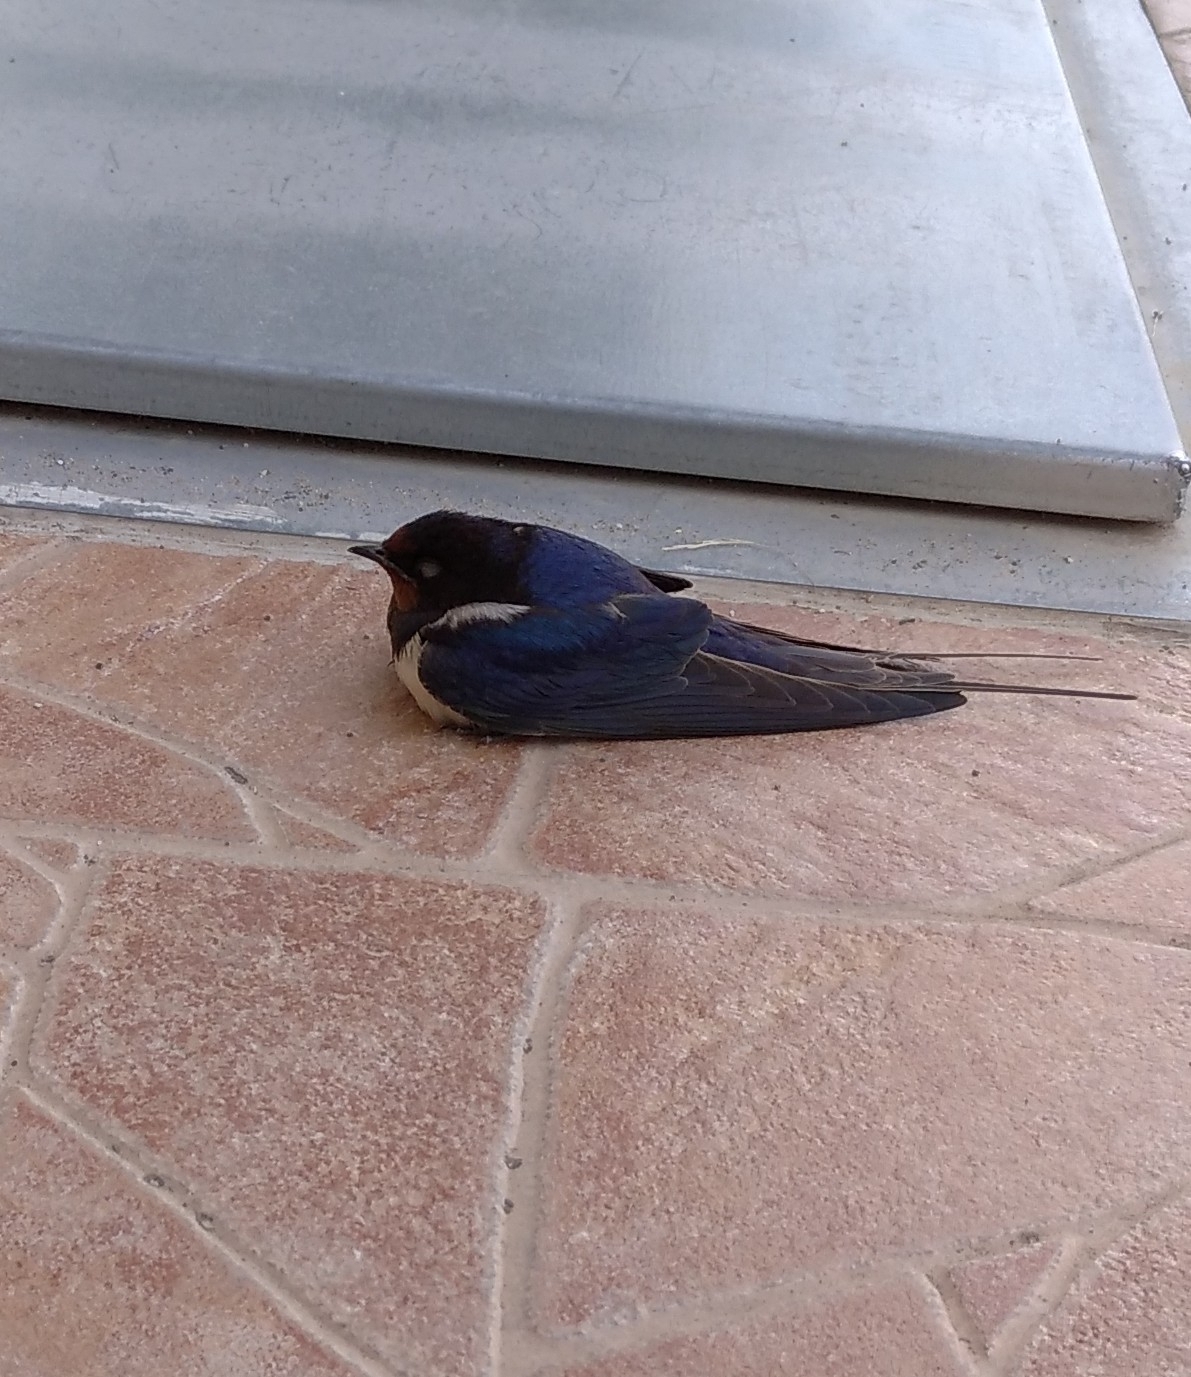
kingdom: Animalia
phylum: Chordata
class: Aves
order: Passeriformes
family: Hirundinidae
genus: Hirundo
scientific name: Hirundo rustica
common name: Barn swallow
